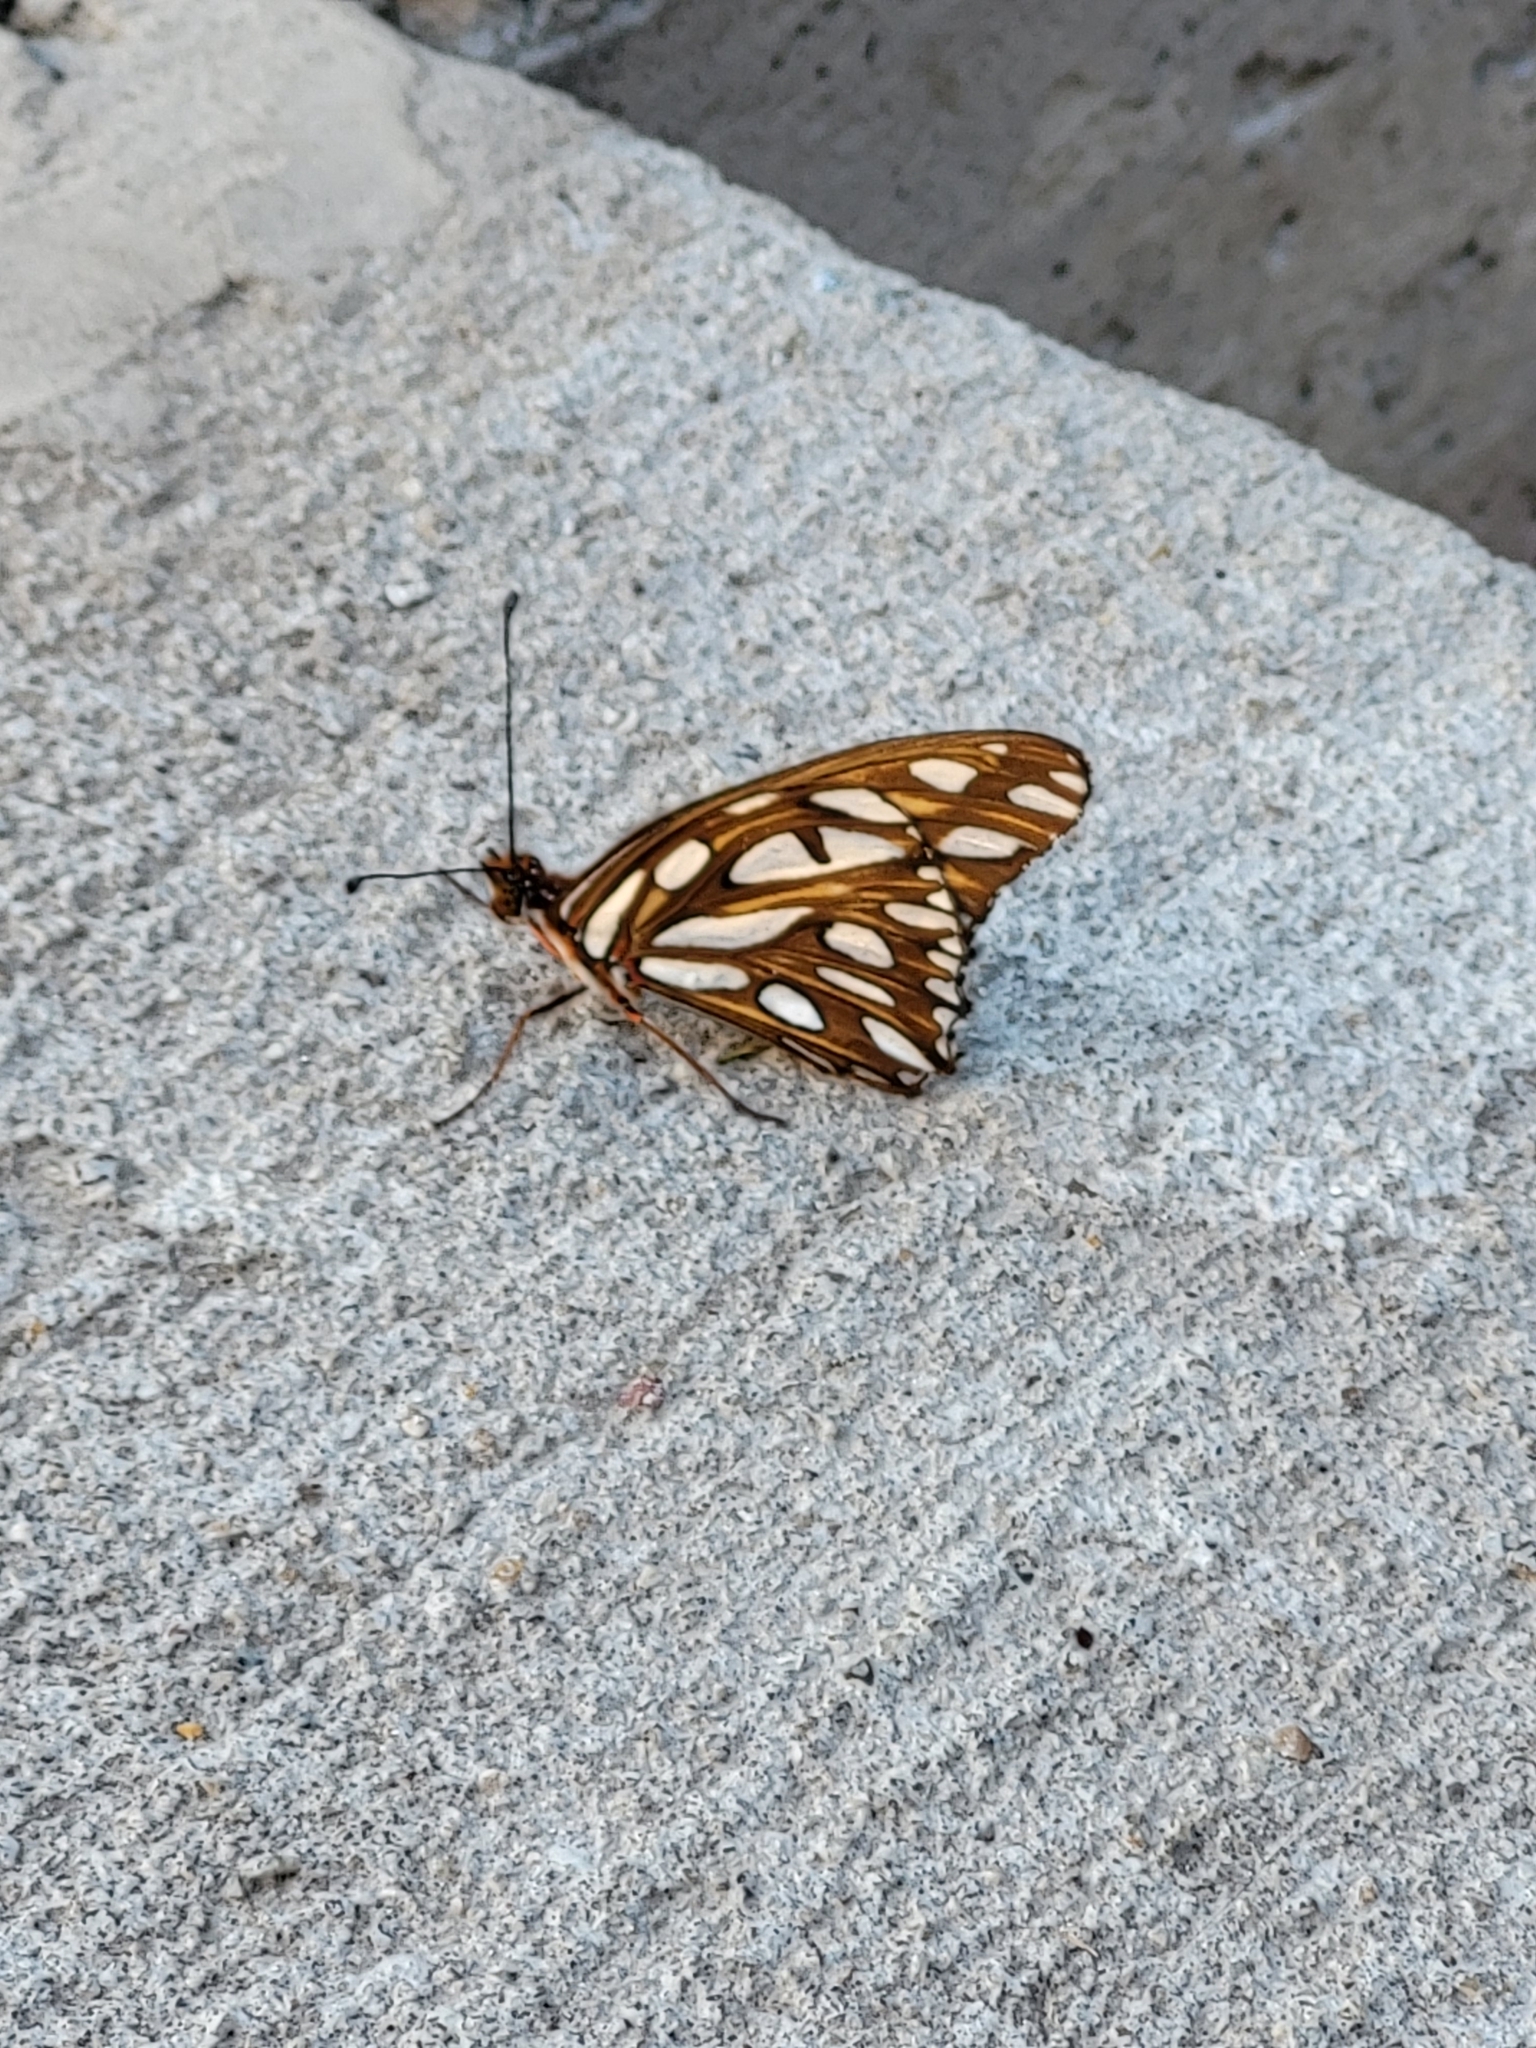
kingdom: Animalia
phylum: Arthropoda
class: Insecta
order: Lepidoptera
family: Nymphalidae
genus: Dione
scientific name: Dione vanillae
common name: Gulf fritillary
